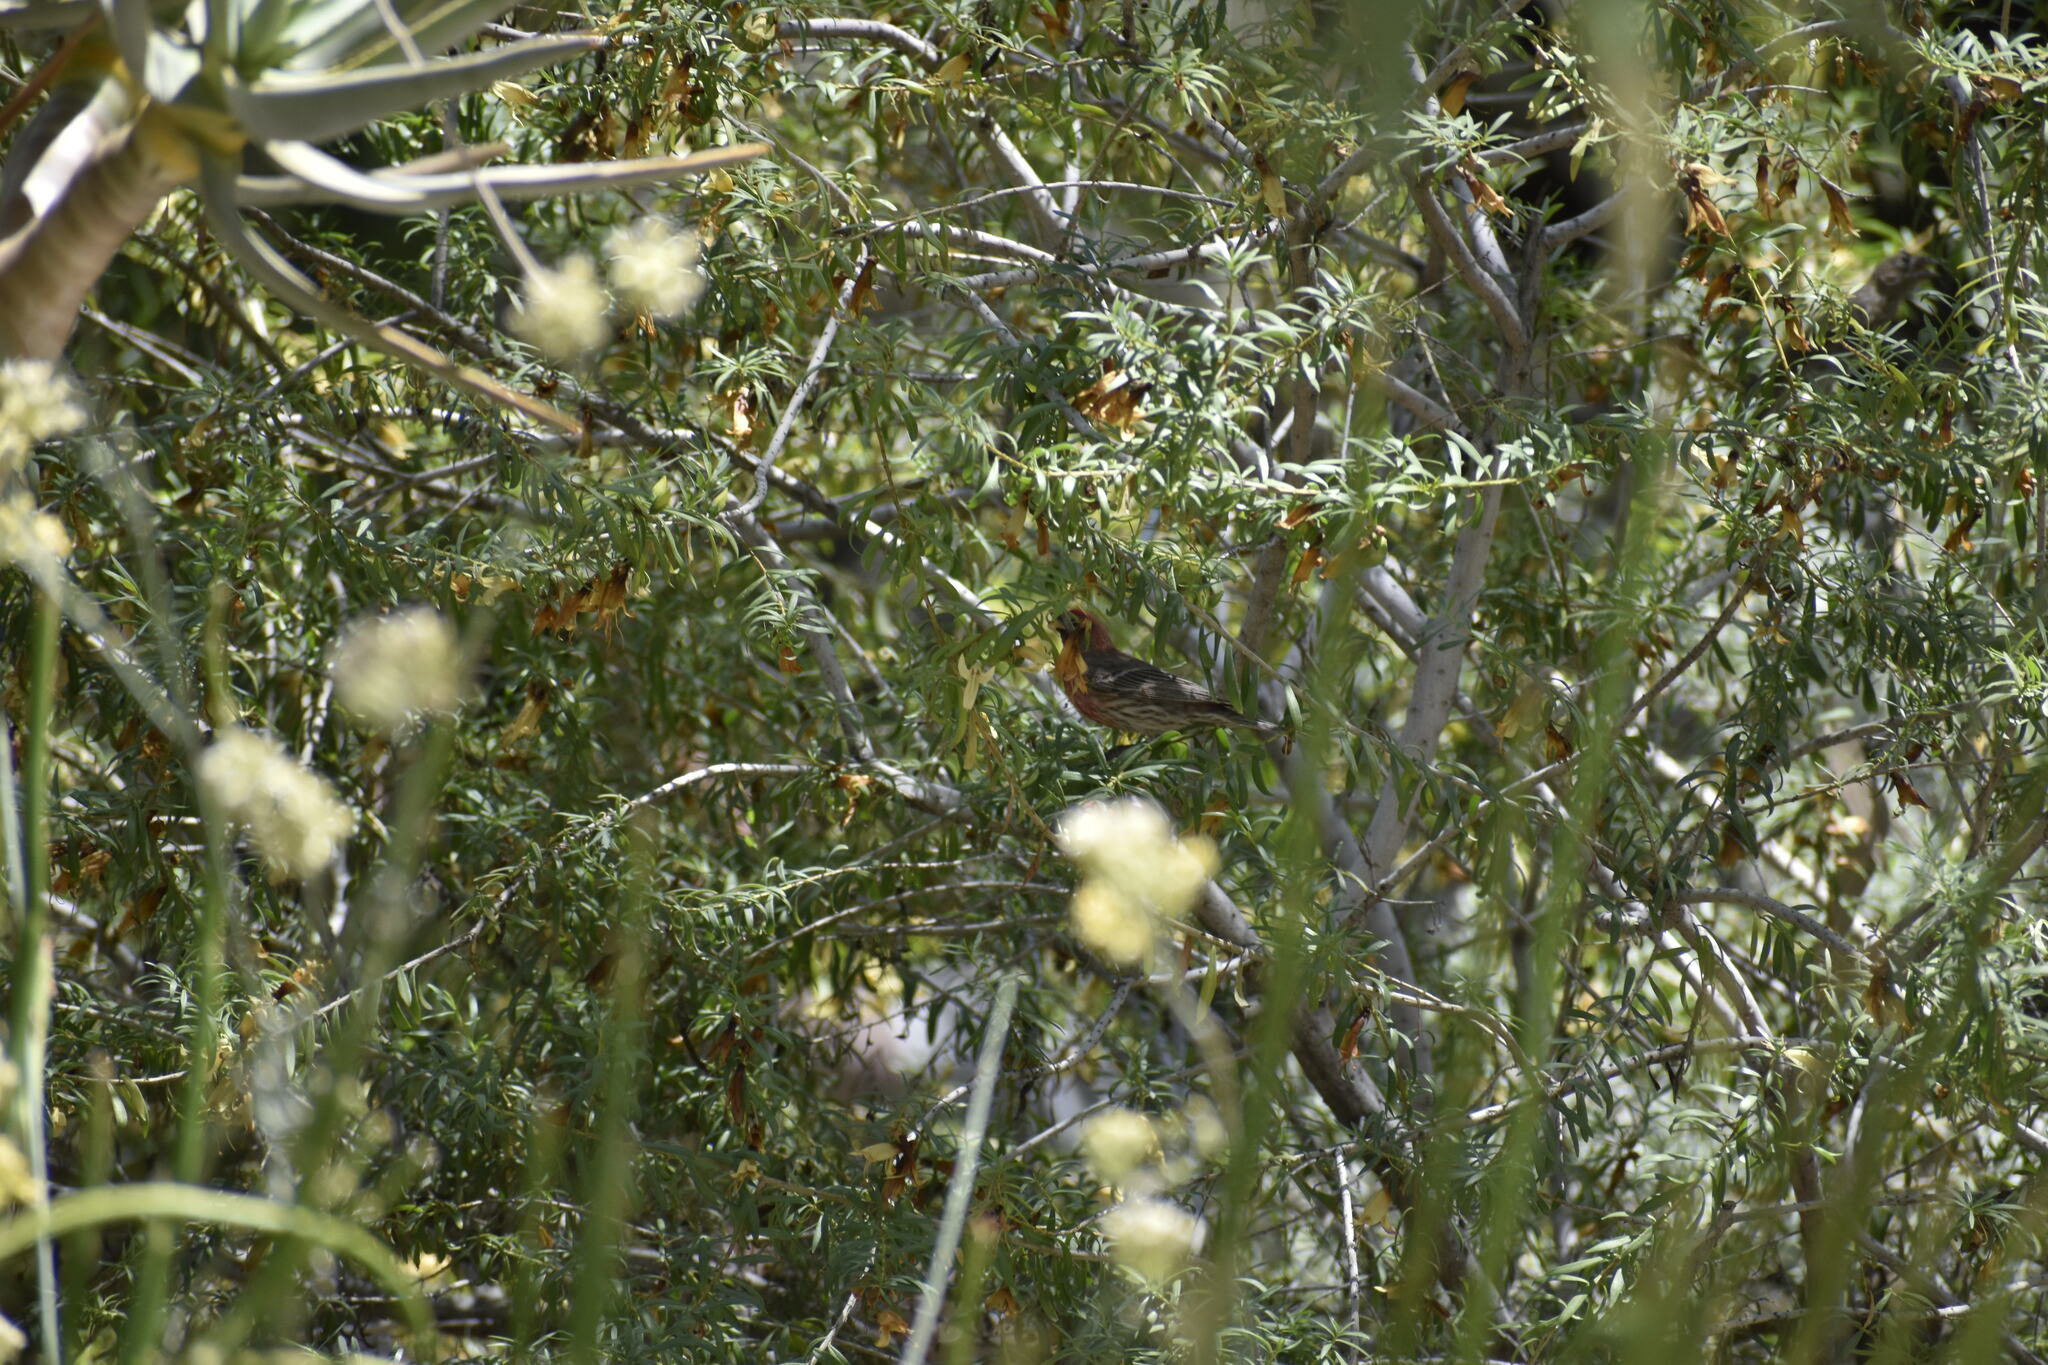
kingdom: Animalia
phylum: Chordata
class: Aves
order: Passeriformes
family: Fringillidae
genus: Haemorhous
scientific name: Haemorhous mexicanus
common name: House finch
